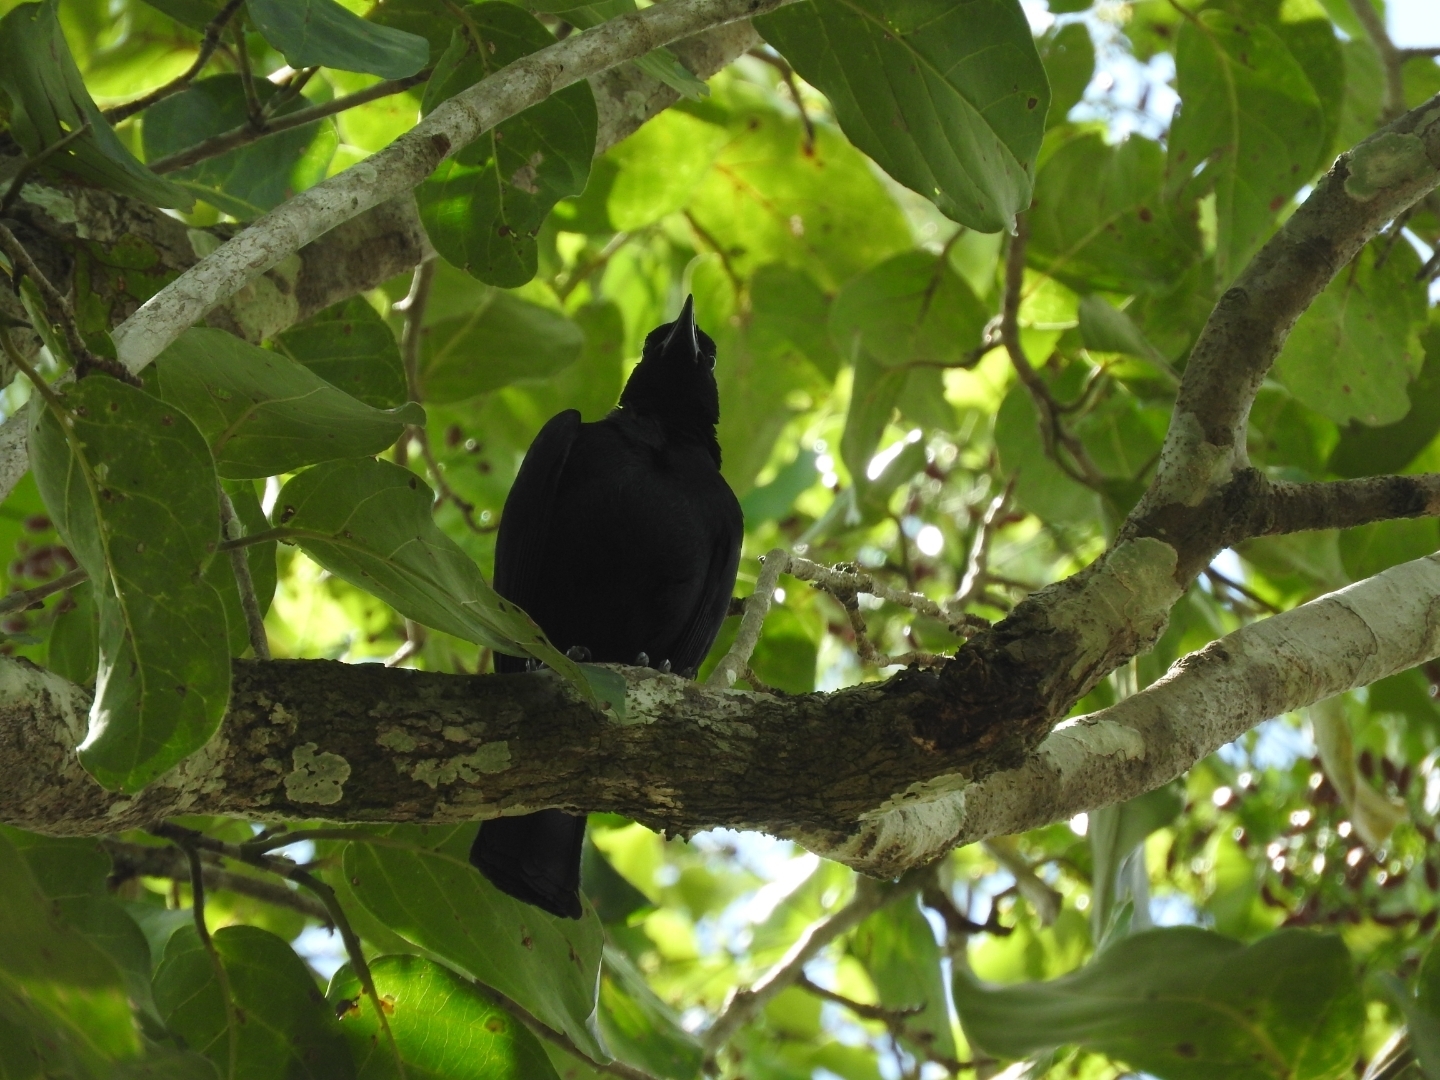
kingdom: Animalia
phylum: Chordata
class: Aves
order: Passeriformes
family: Icteridae
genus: Dives
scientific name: Dives dives
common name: Melodious blackbird
